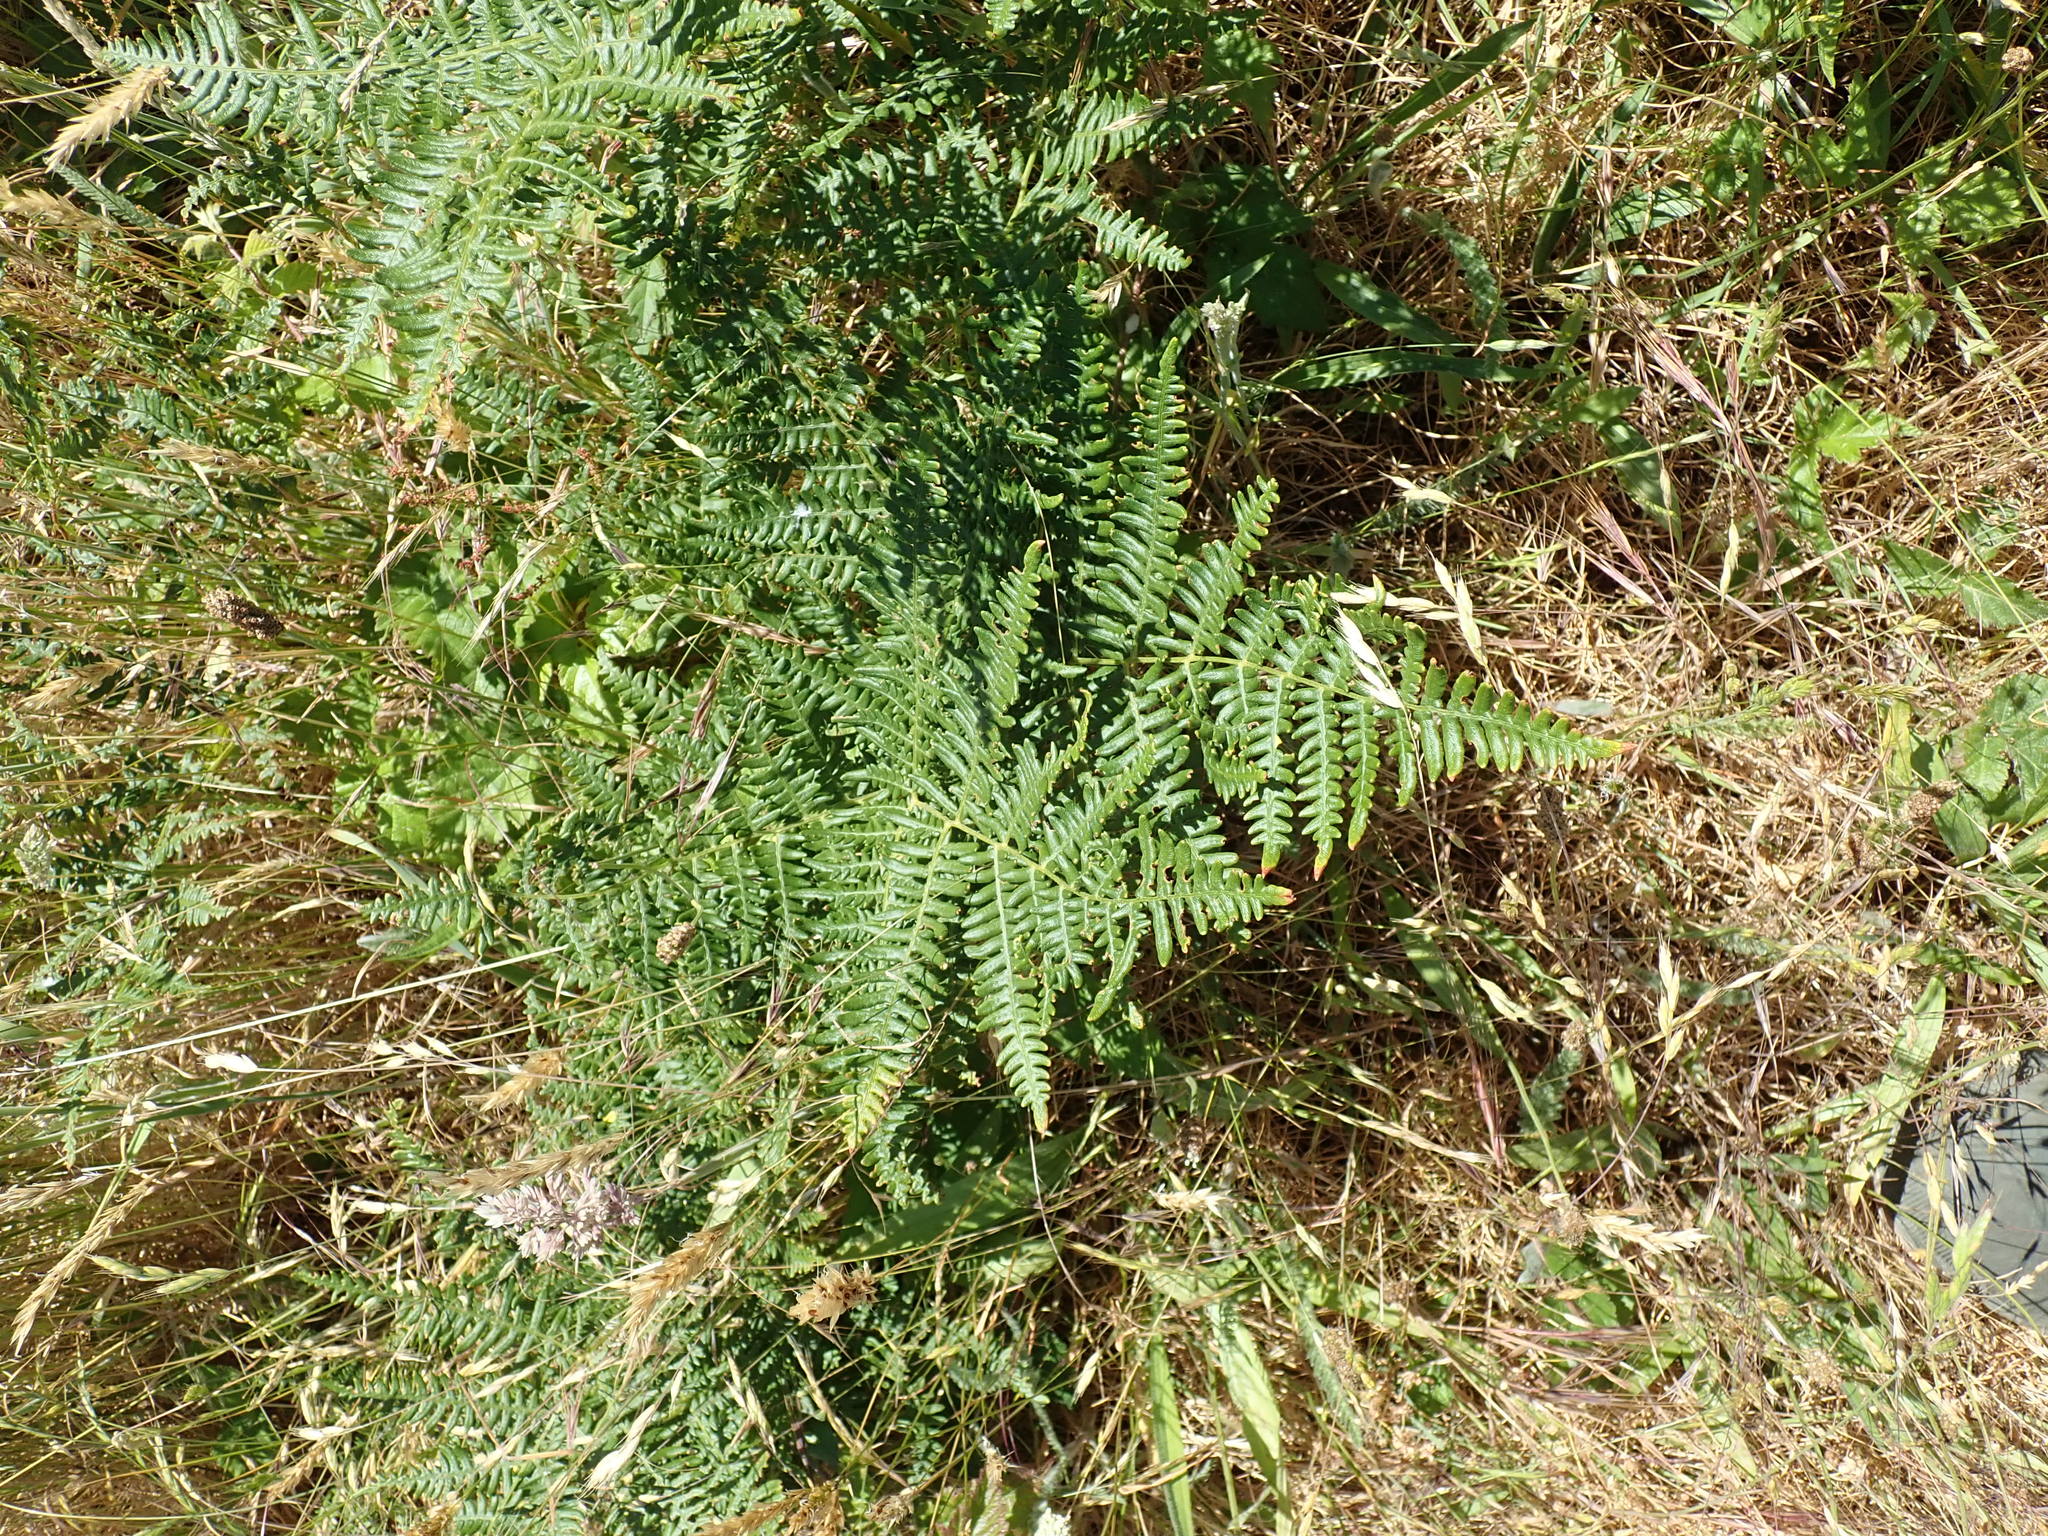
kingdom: Plantae
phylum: Tracheophyta
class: Polypodiopsida
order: Polypodiales
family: Dennstaedtiaceae
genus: Pteridium
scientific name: Pteridium aquilinum
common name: Bracken
